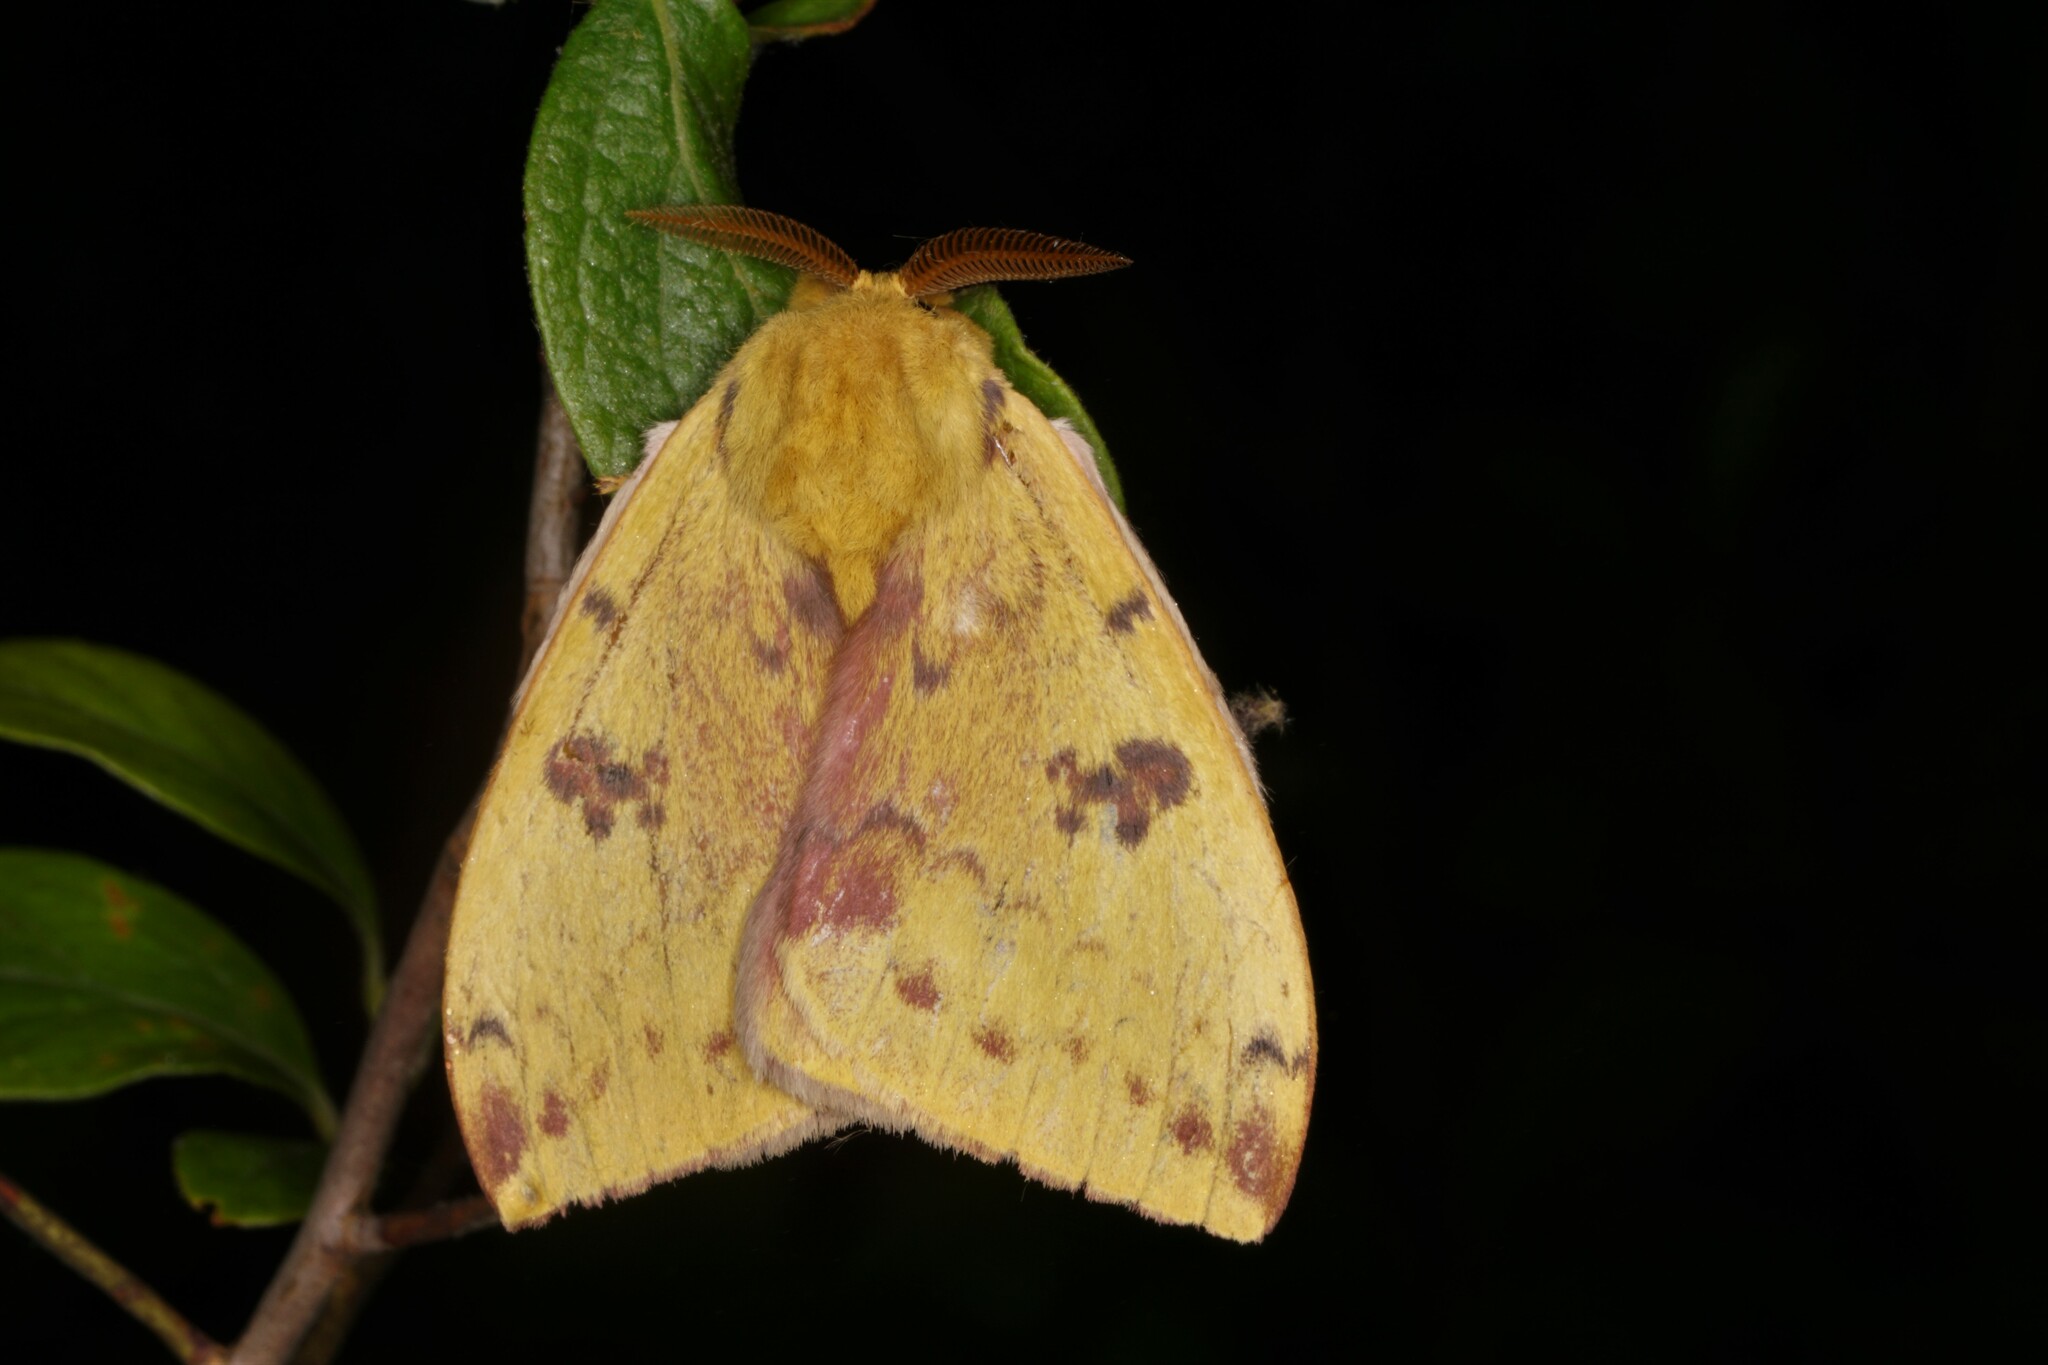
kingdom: Animalia
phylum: Arthropoda
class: Insecta
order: Lepidoptera
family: Saturniidae
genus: Automeris
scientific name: Automeris io
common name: Io moth
